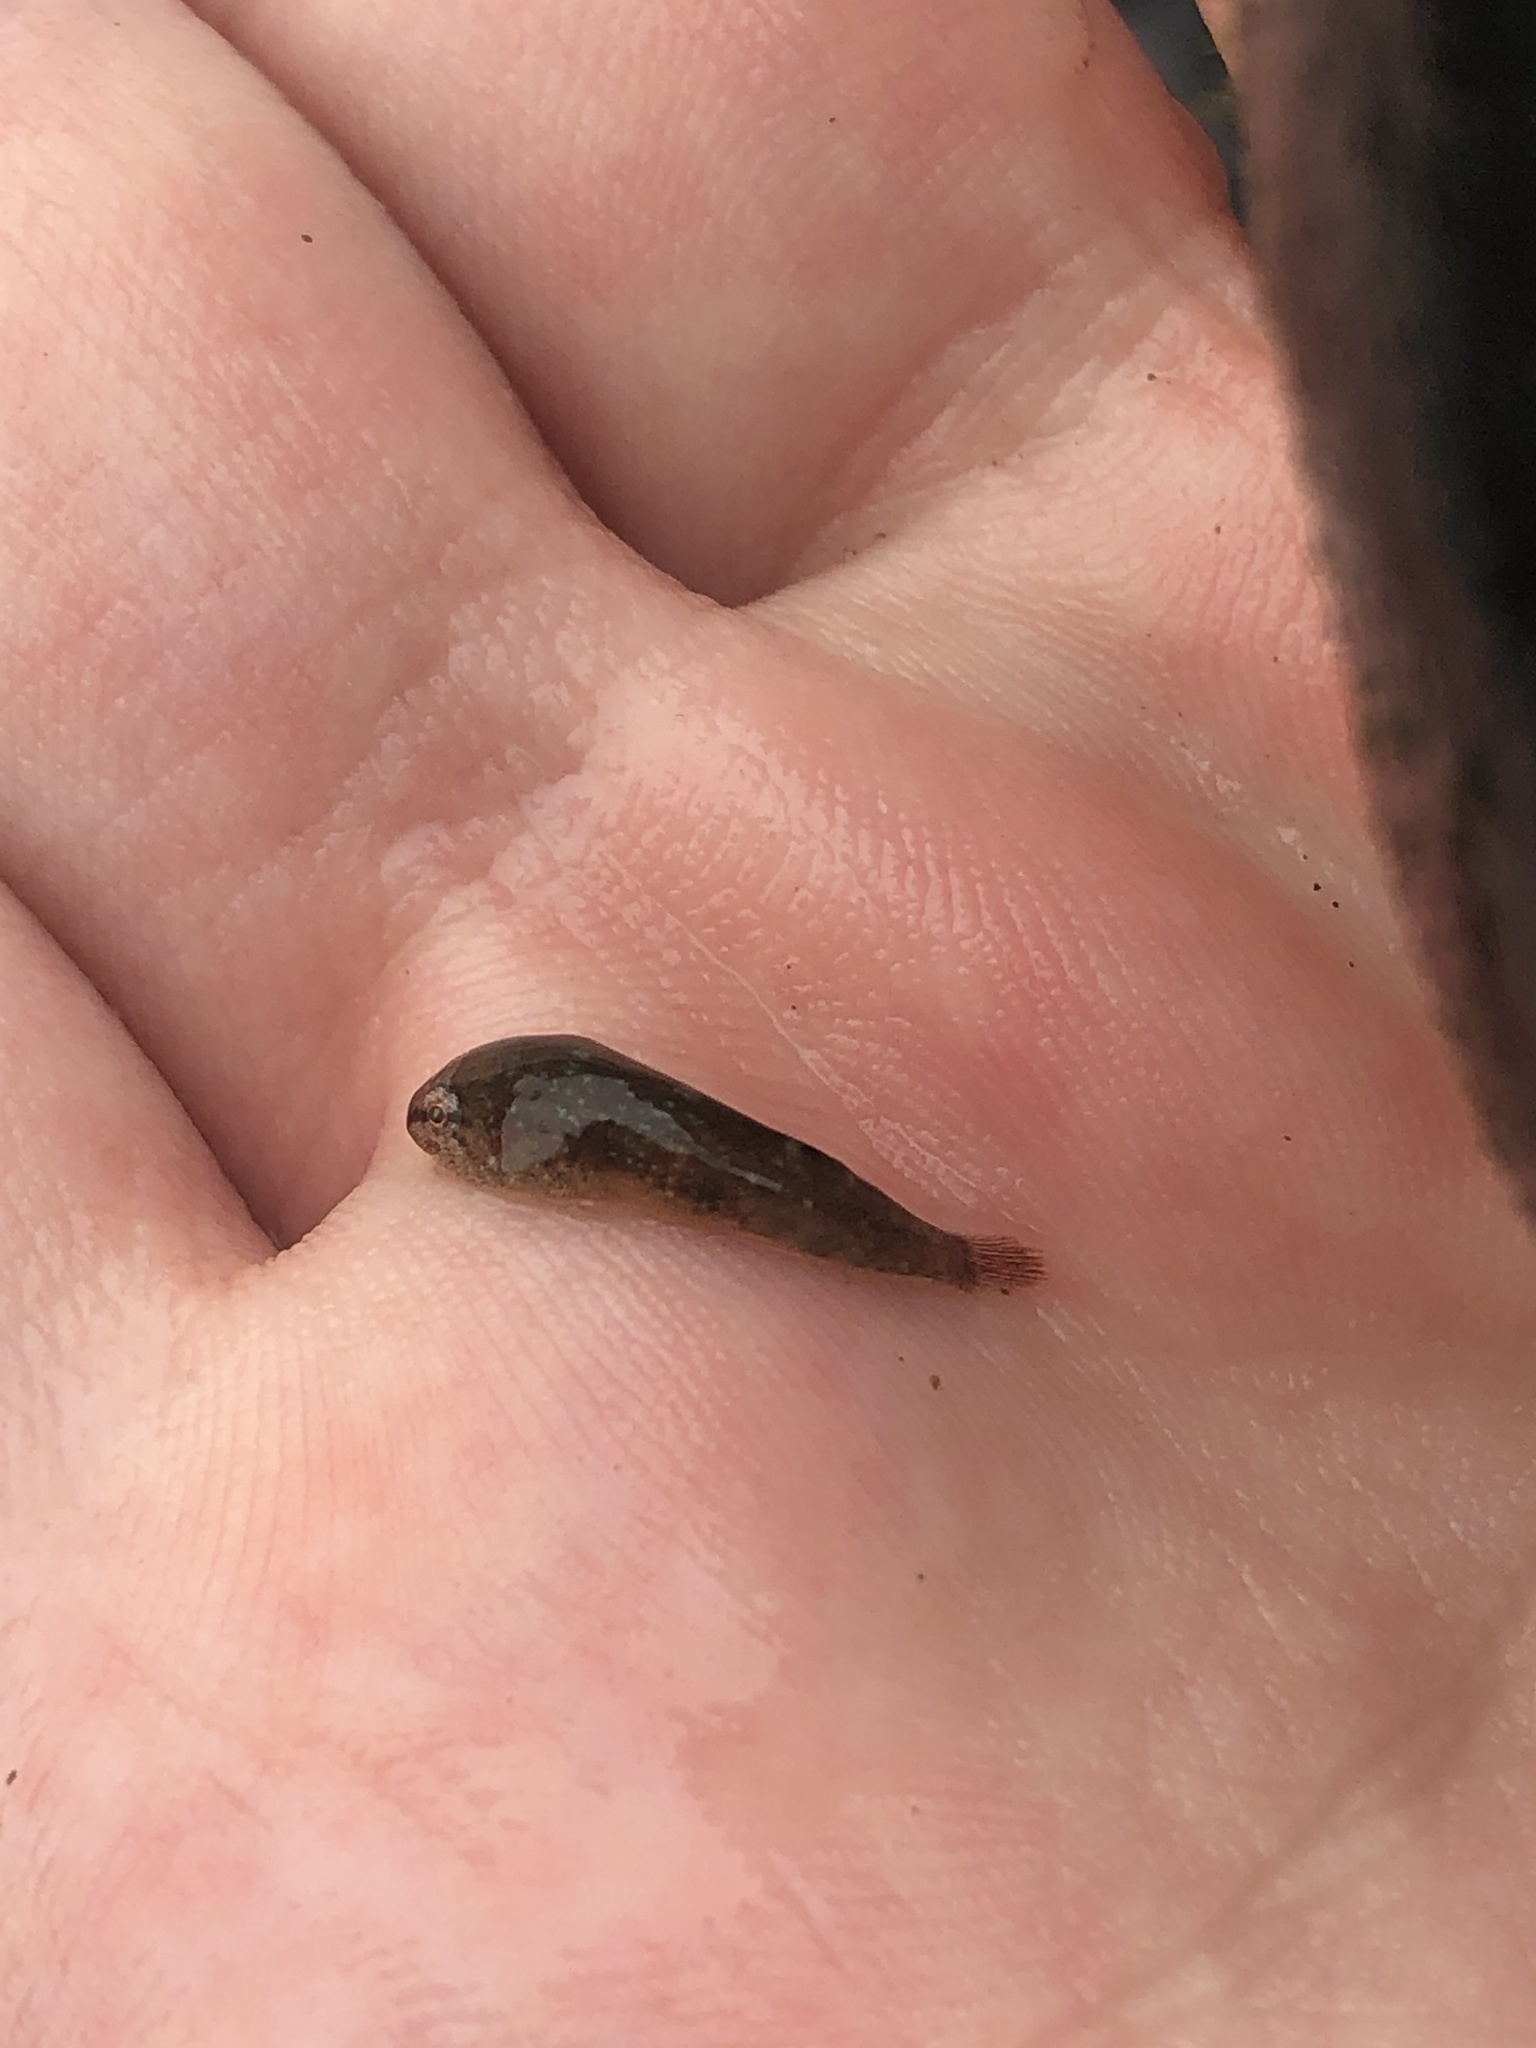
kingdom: Animalia
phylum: Chordata
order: Gobiesociformes
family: Gobiesocidae
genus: Gobiesox
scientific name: Gobiesox maeandricus
